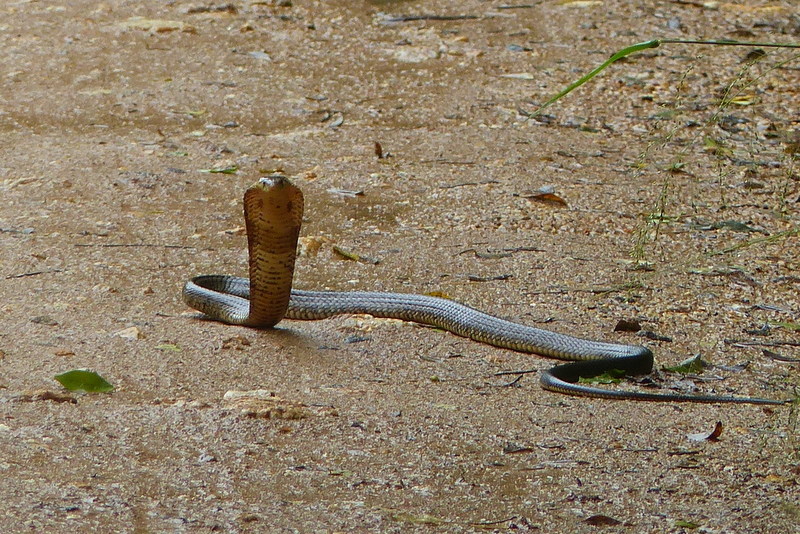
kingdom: Animalia
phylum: Chordata
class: Squamata
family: Elapidae
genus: Naja
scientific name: Naja subfulva
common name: Brown forest cobra
